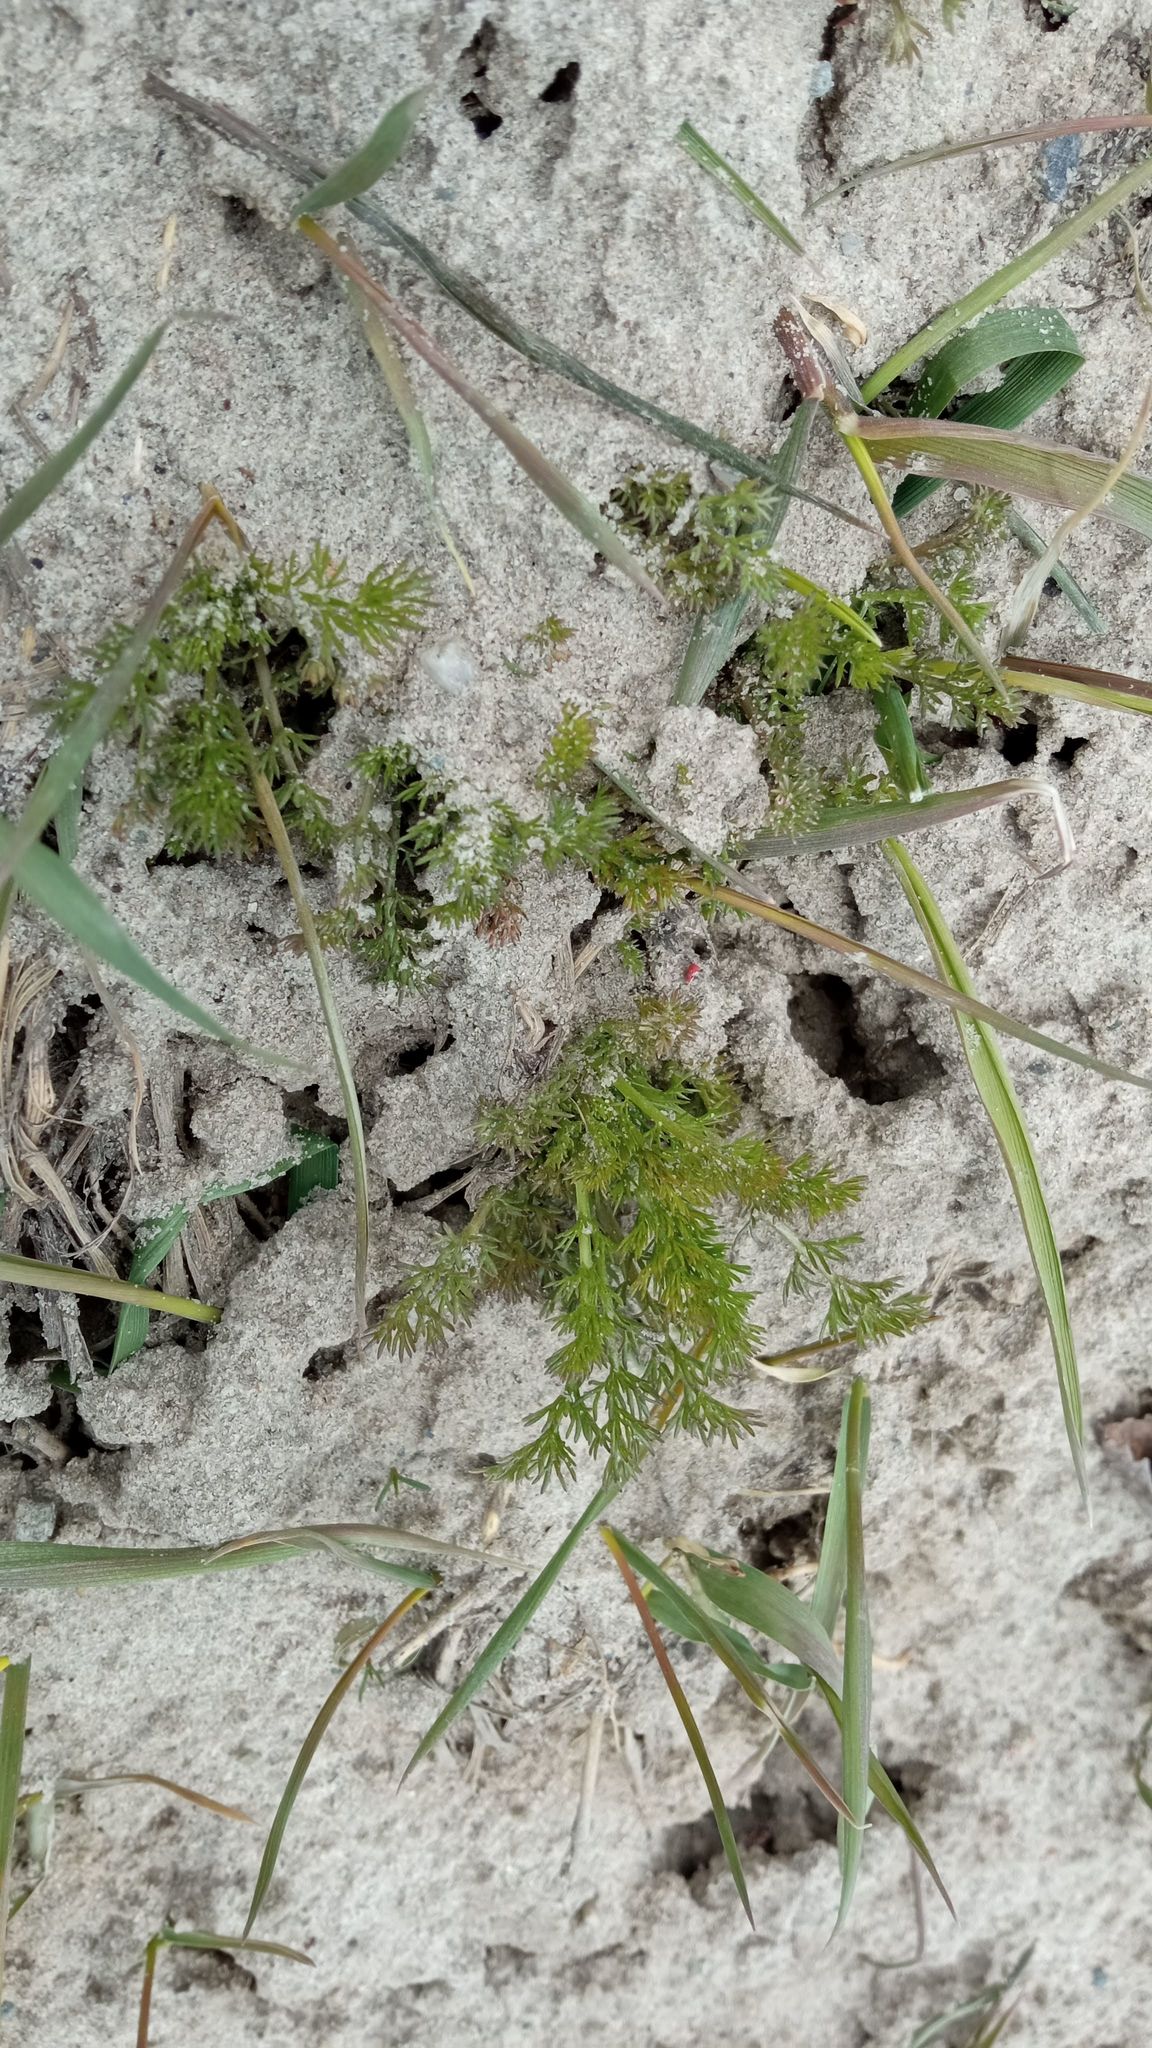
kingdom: Plantae
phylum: Tracheophyta
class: Magnoliopsida
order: Asterales
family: Asteraceae
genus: Tripleurospermum
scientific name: Tripleurospermum inodorum
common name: Scentless mayweed
